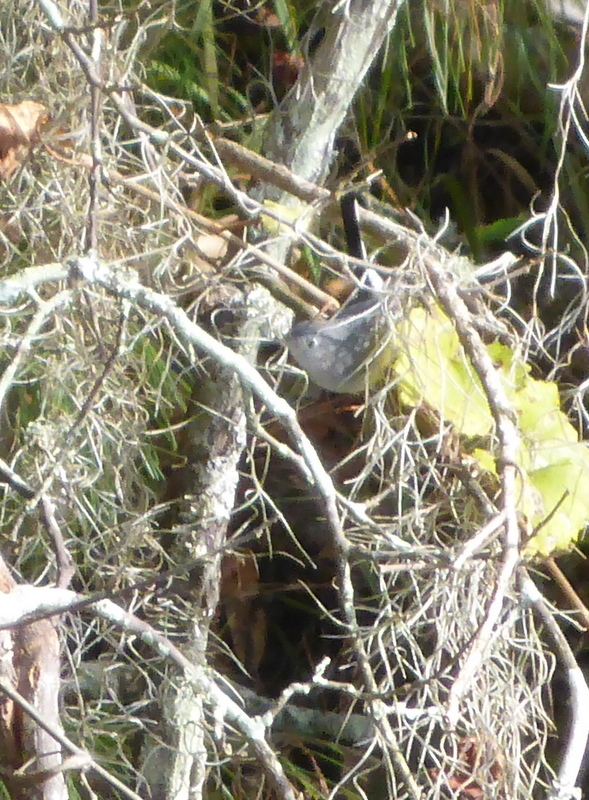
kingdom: Animalia
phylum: Chordata
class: Aves
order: Passeriformes
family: Polioptilidae
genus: Polioptila
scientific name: Polioptila caerulea
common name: Blue-gray gnatcatcher
